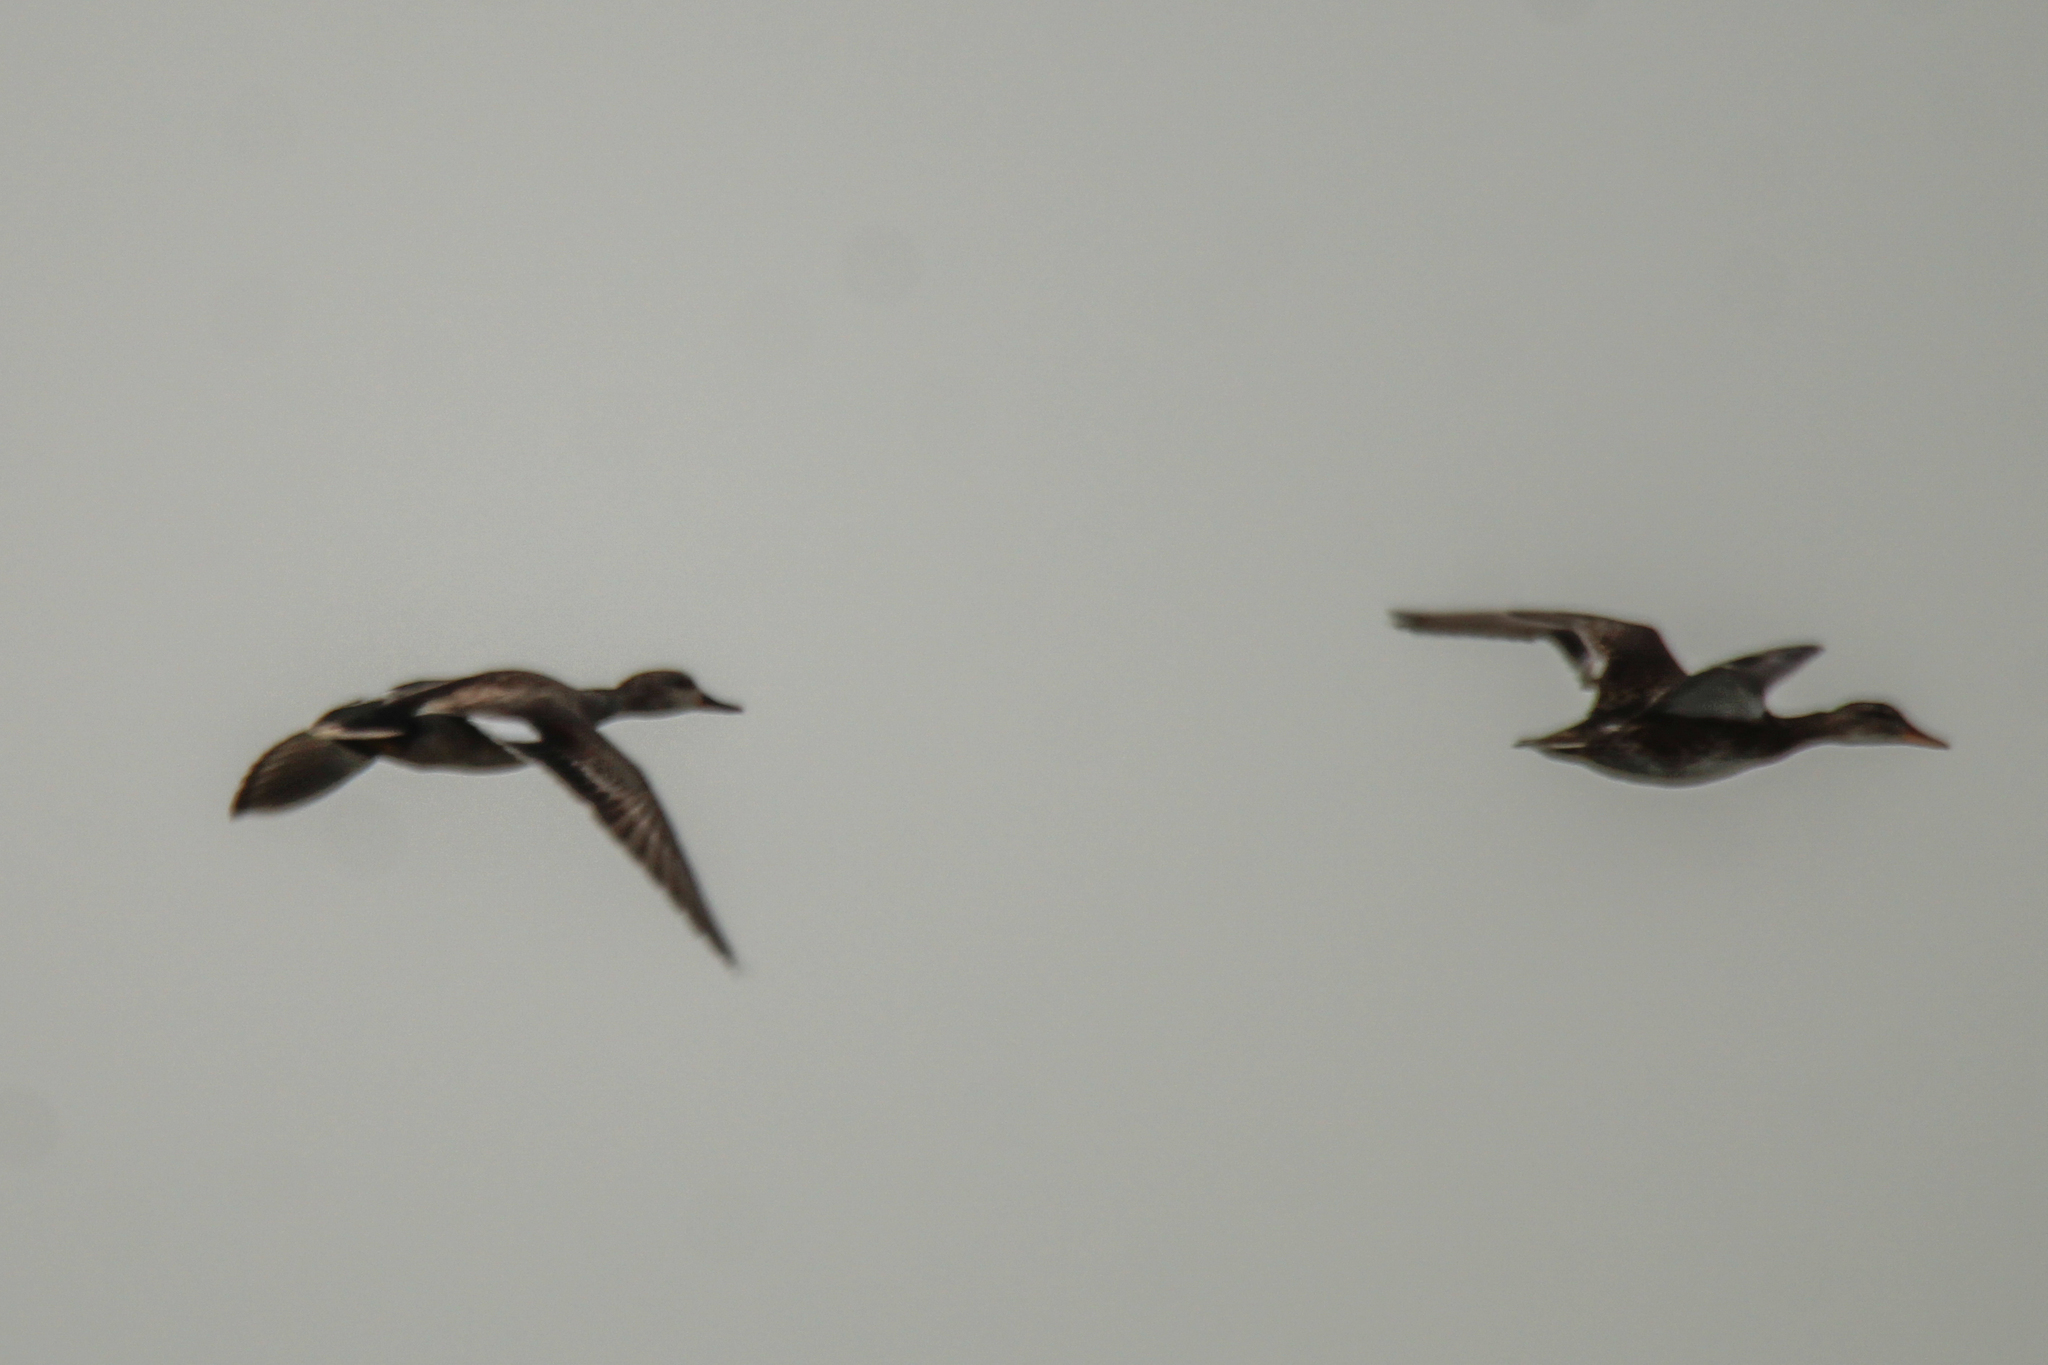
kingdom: Animalia
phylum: Chordata
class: Aves
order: Anseriformes
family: Anatidae
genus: Mareca
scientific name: Mareca strepera
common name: Gadwall
